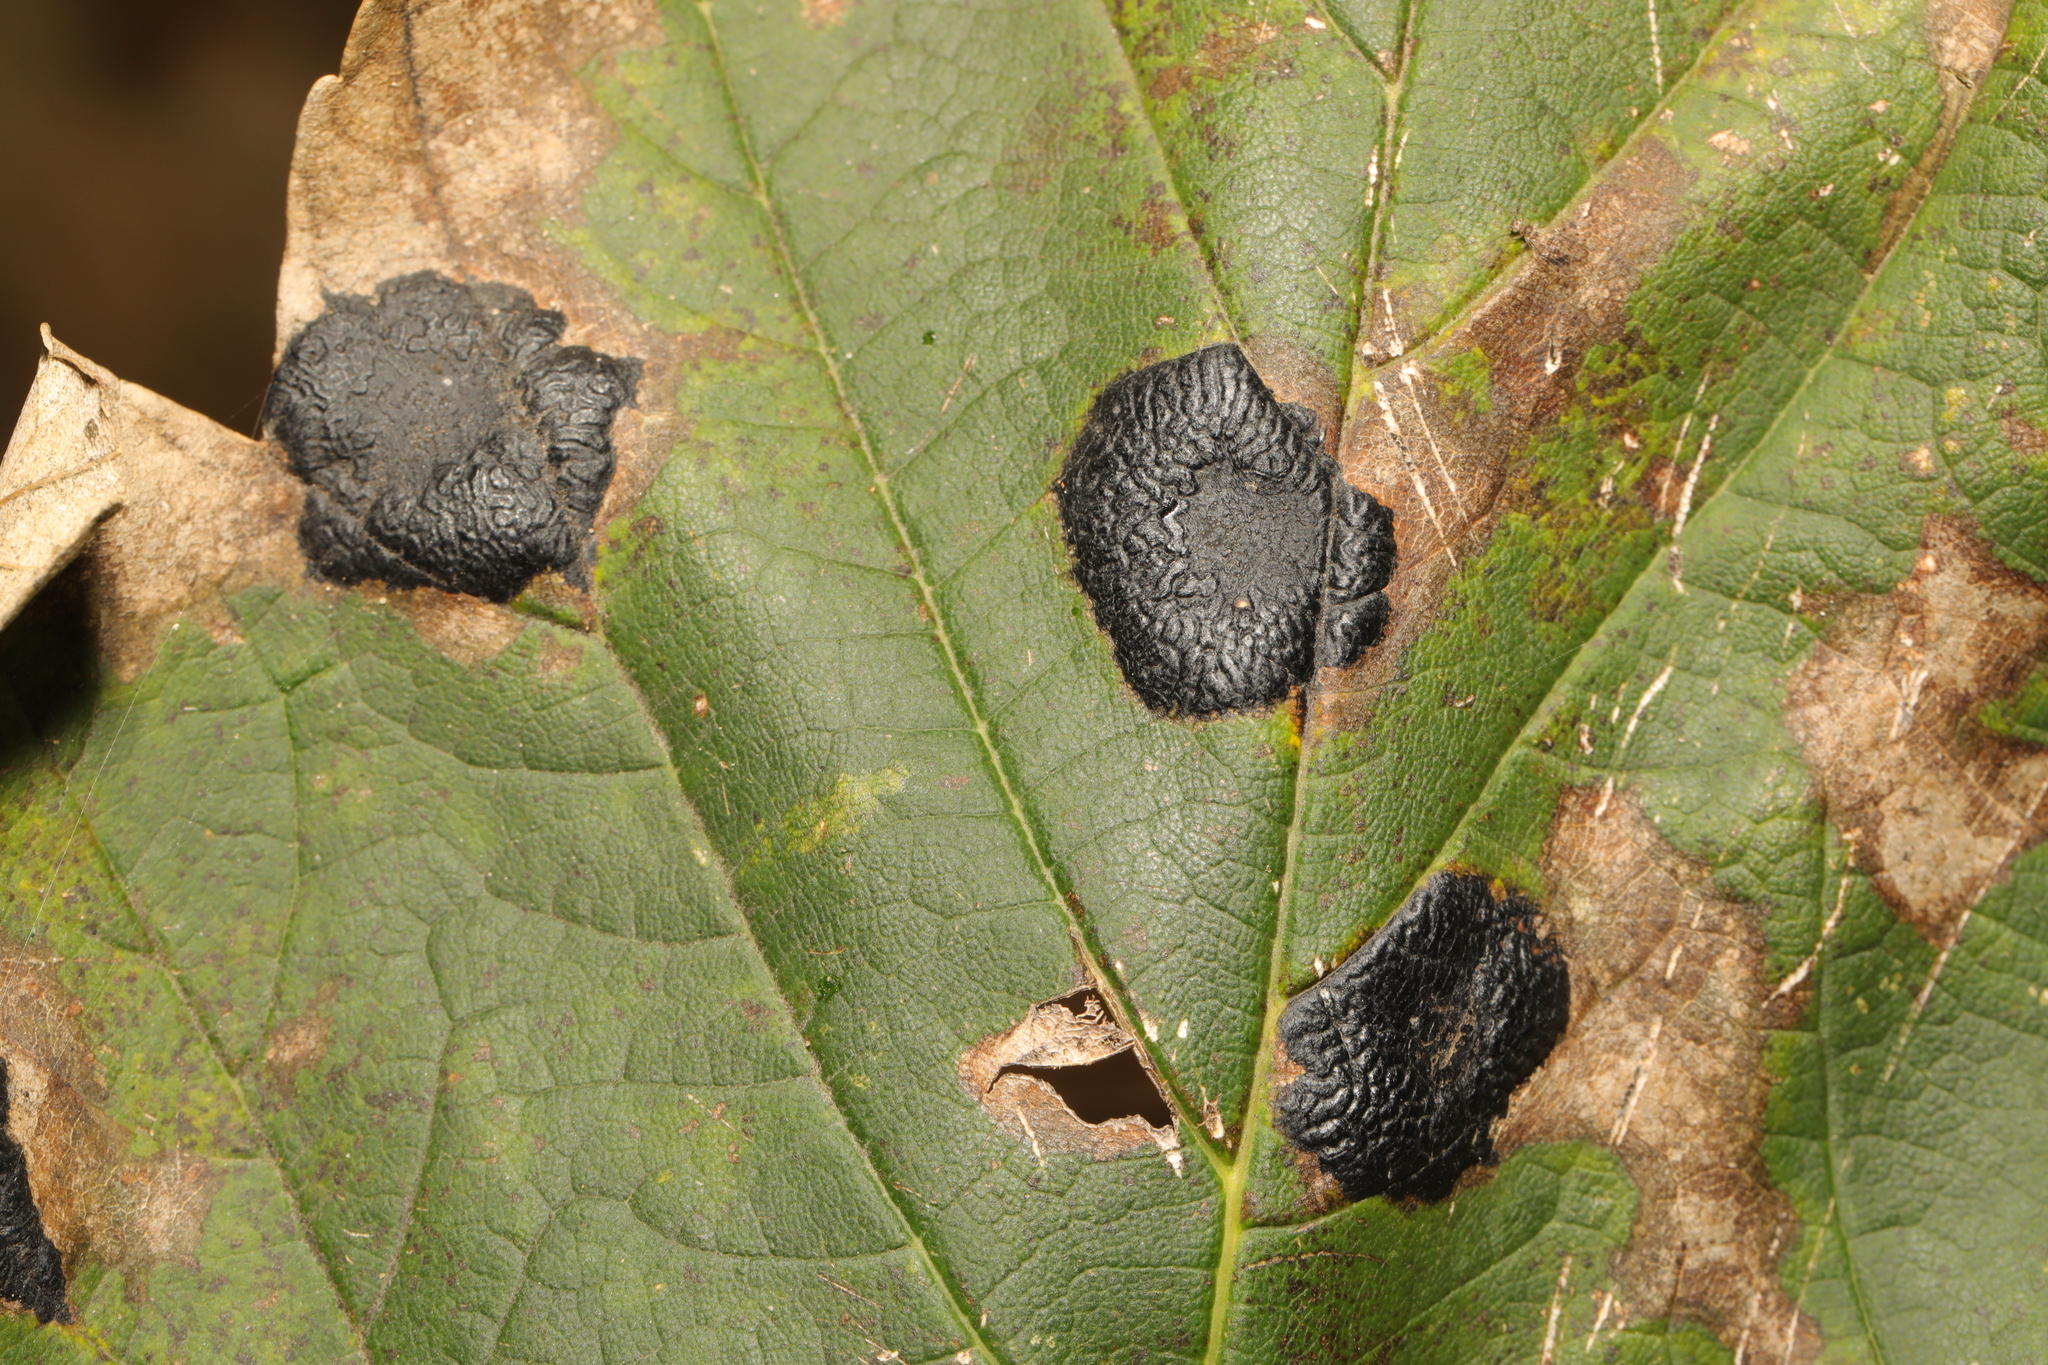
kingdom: Fungi
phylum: Ascomycota
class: Leotiomycetes
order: Rhytismatales
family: Rhytismataceae
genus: Rhytisma
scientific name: Rhytisma acerinum
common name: European tar spot
